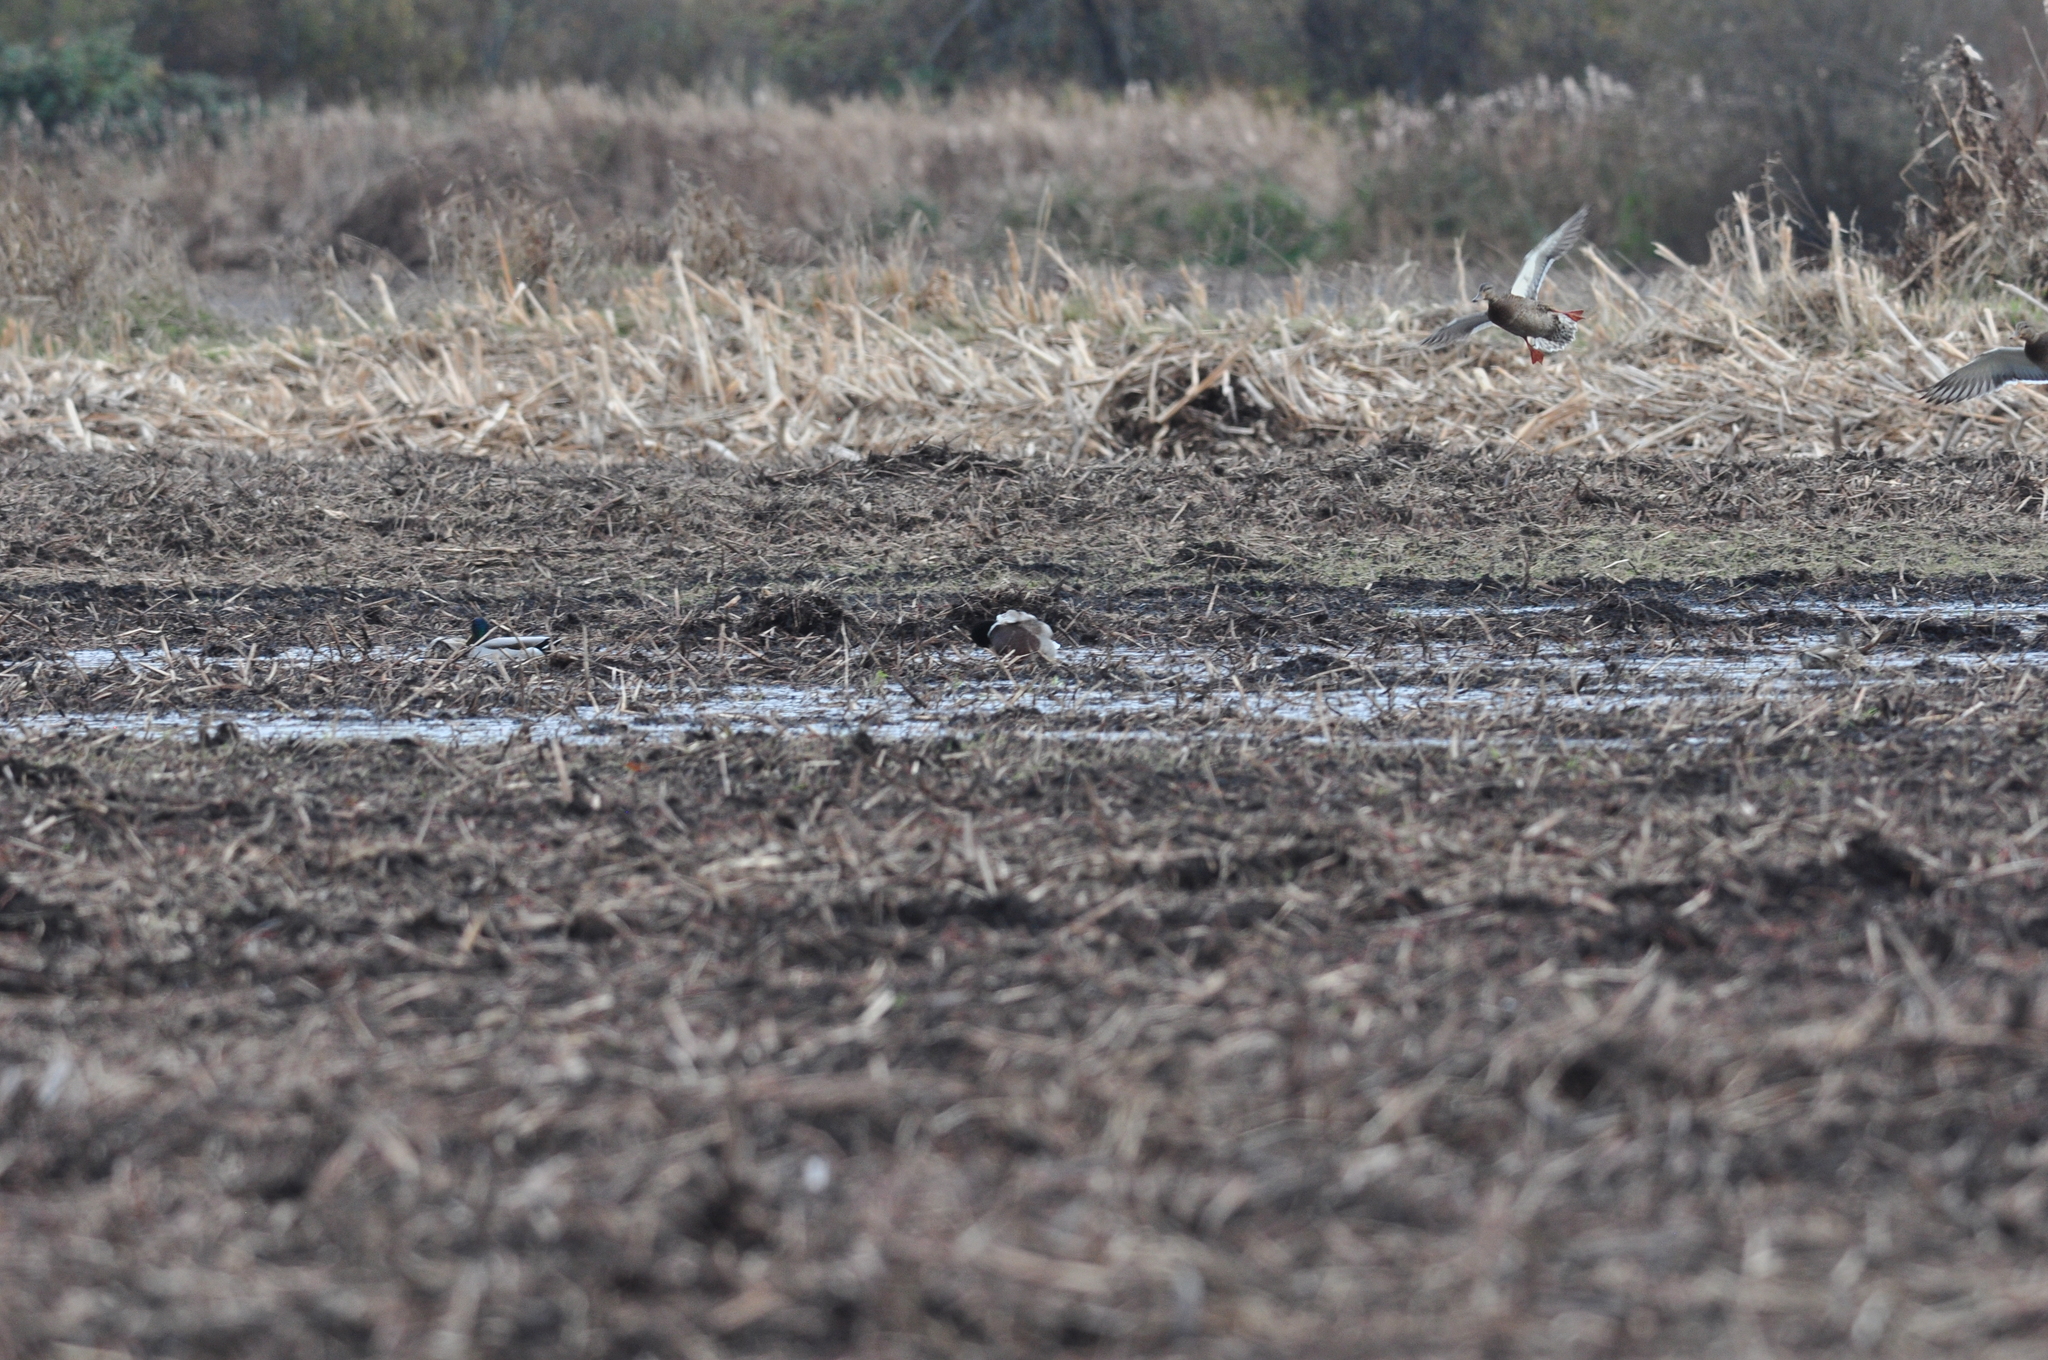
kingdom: Animalia
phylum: Chordata
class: Aves
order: Anseriformes
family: Anatidae
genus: Anas
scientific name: Anas platyrhynchos
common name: Mallard
